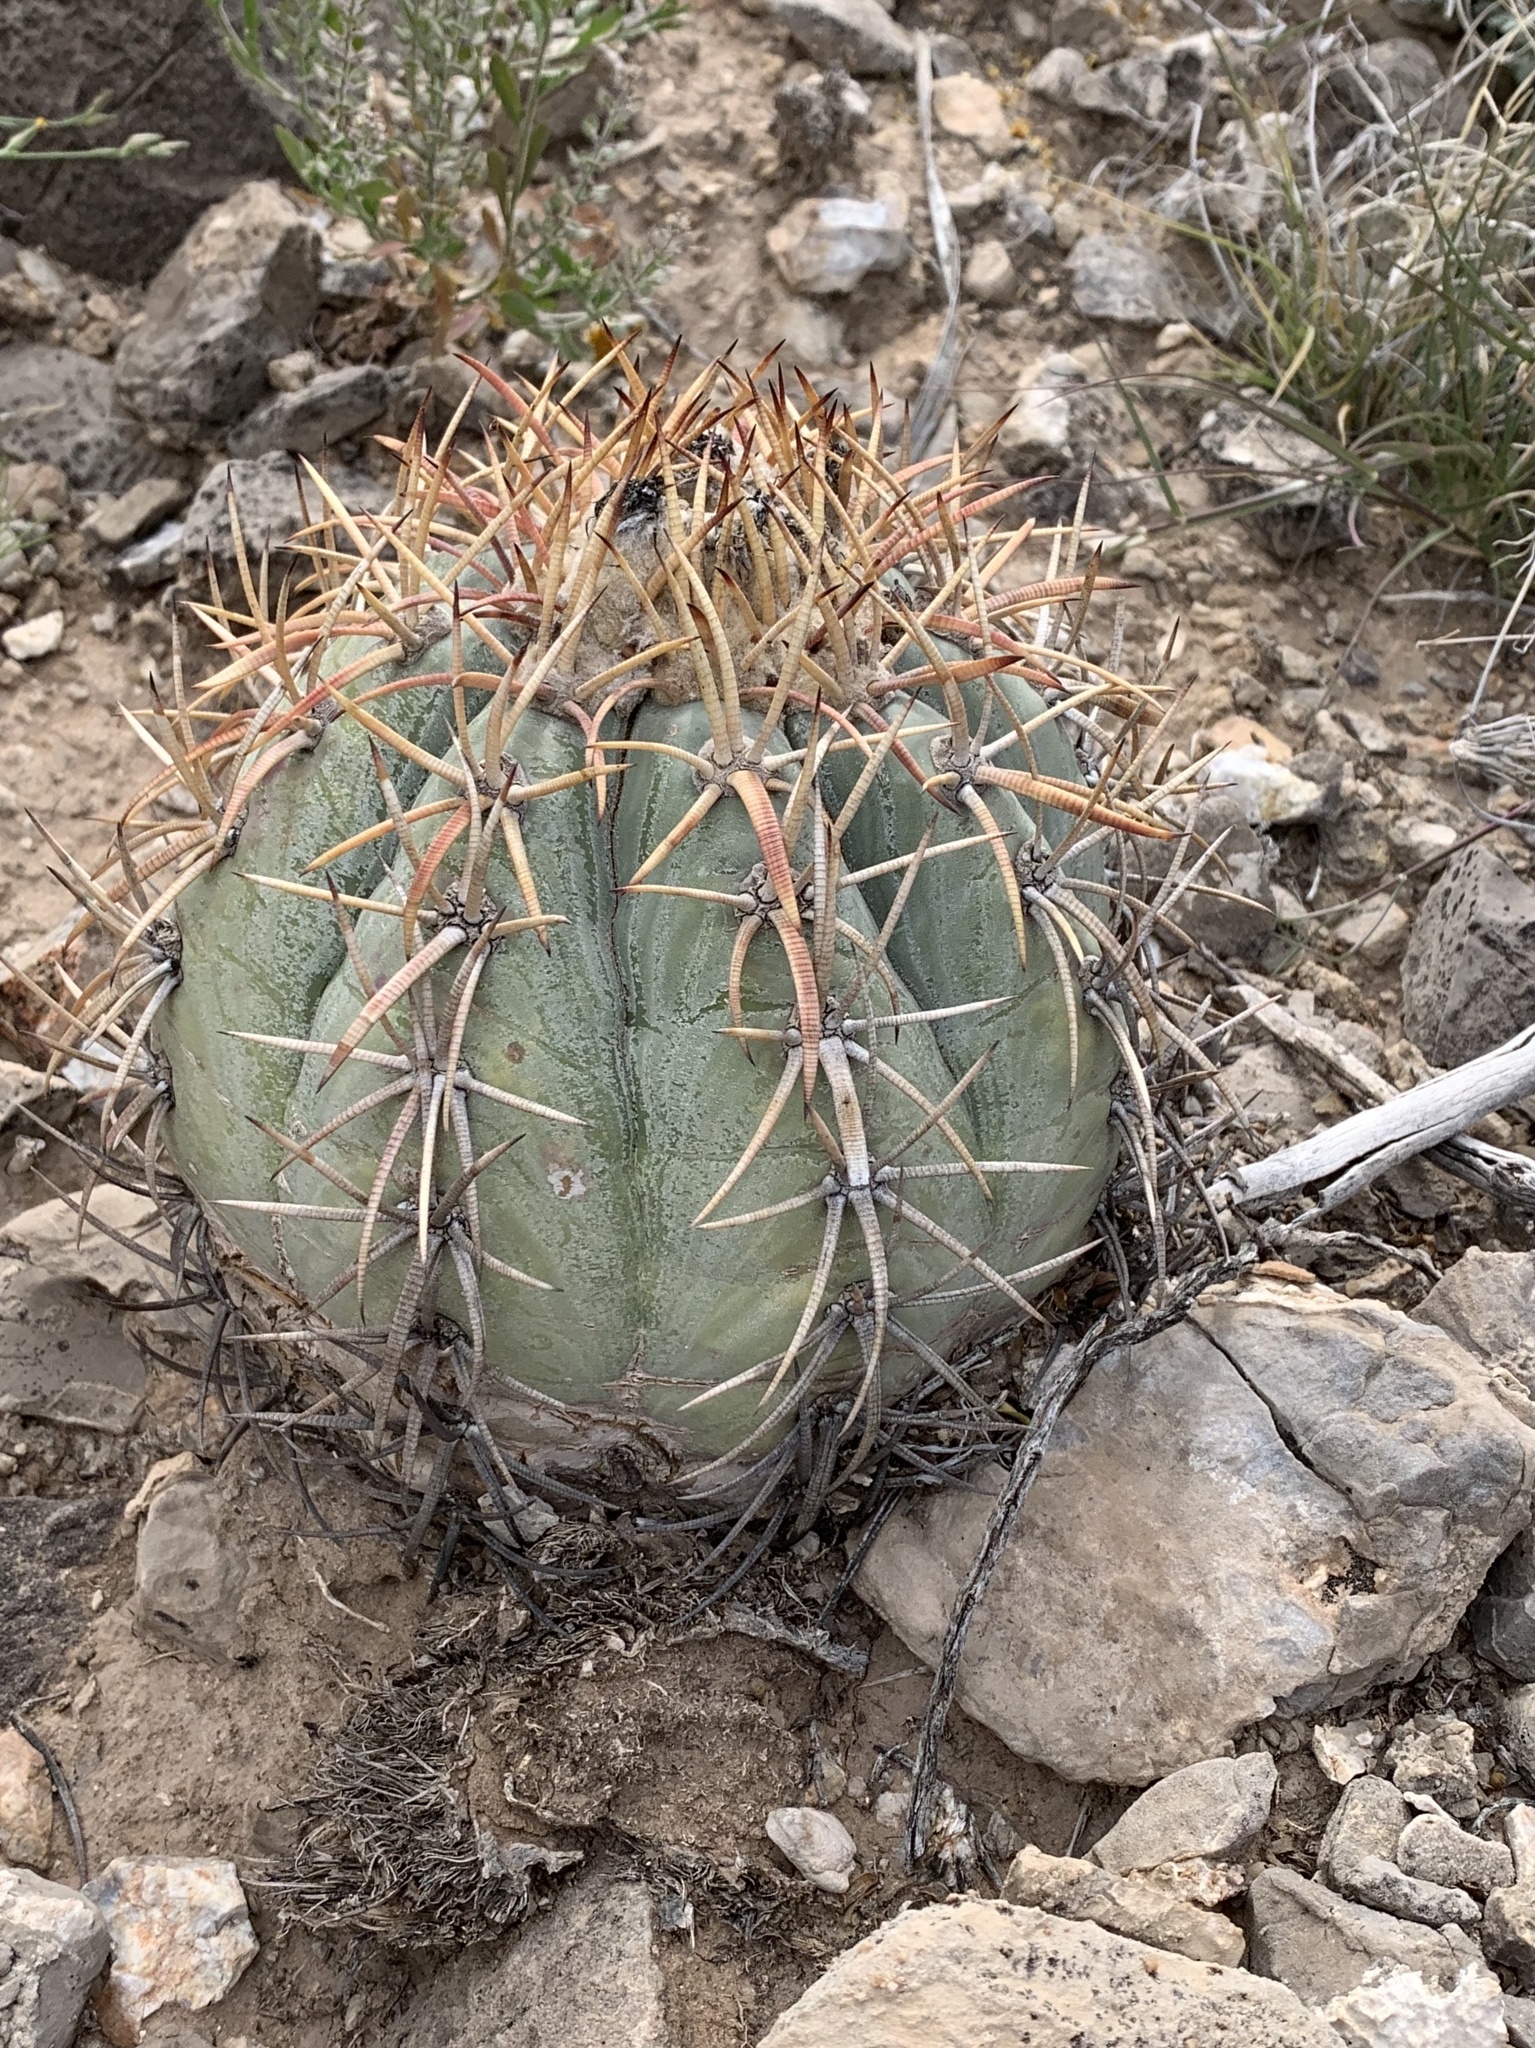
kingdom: Plantae
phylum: Tracheophyta
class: Magnoliopsida
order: Caryophyllales
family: Cactaceae
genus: Echinocactus
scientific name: Echinocactus horizonthalonius
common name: Devilshead
